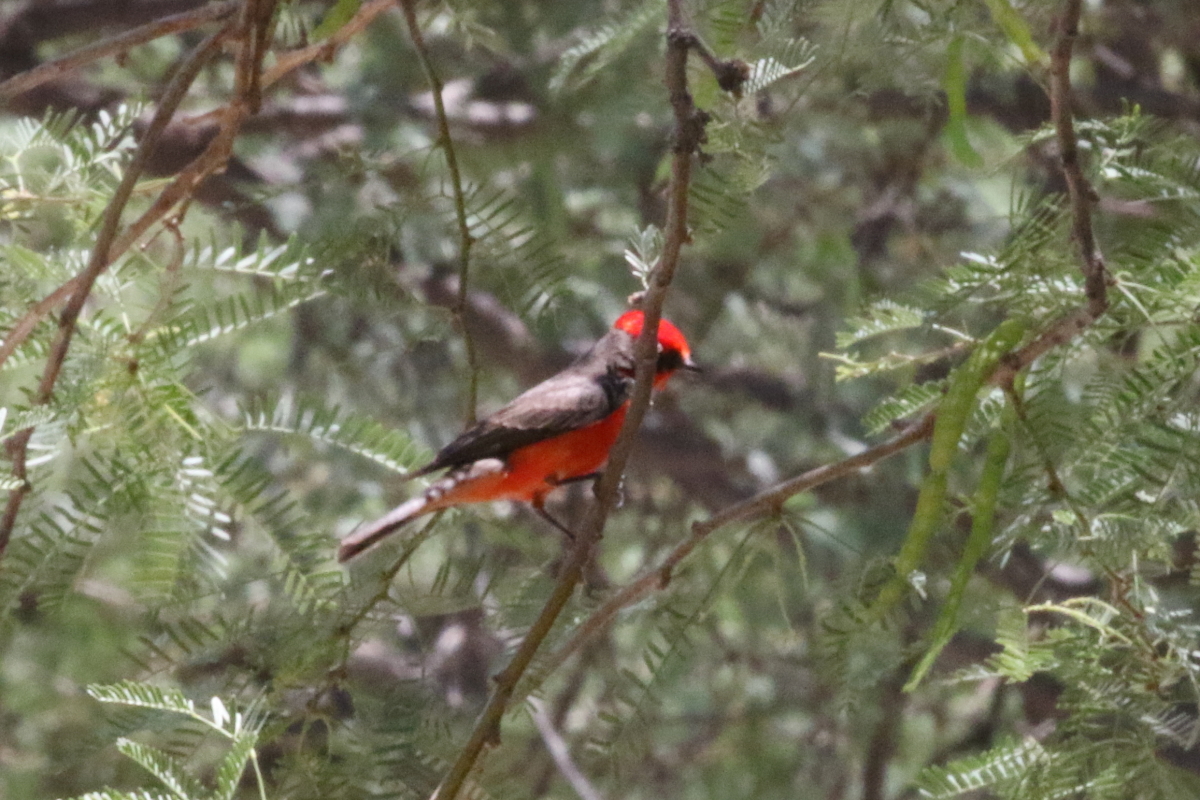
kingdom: Animalia
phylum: Chordata
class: Aves
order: Passeriformes
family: Tyrannidae
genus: Pyrocephalus
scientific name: Pyrocephalus rubinus
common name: Vermilion flycatcher
